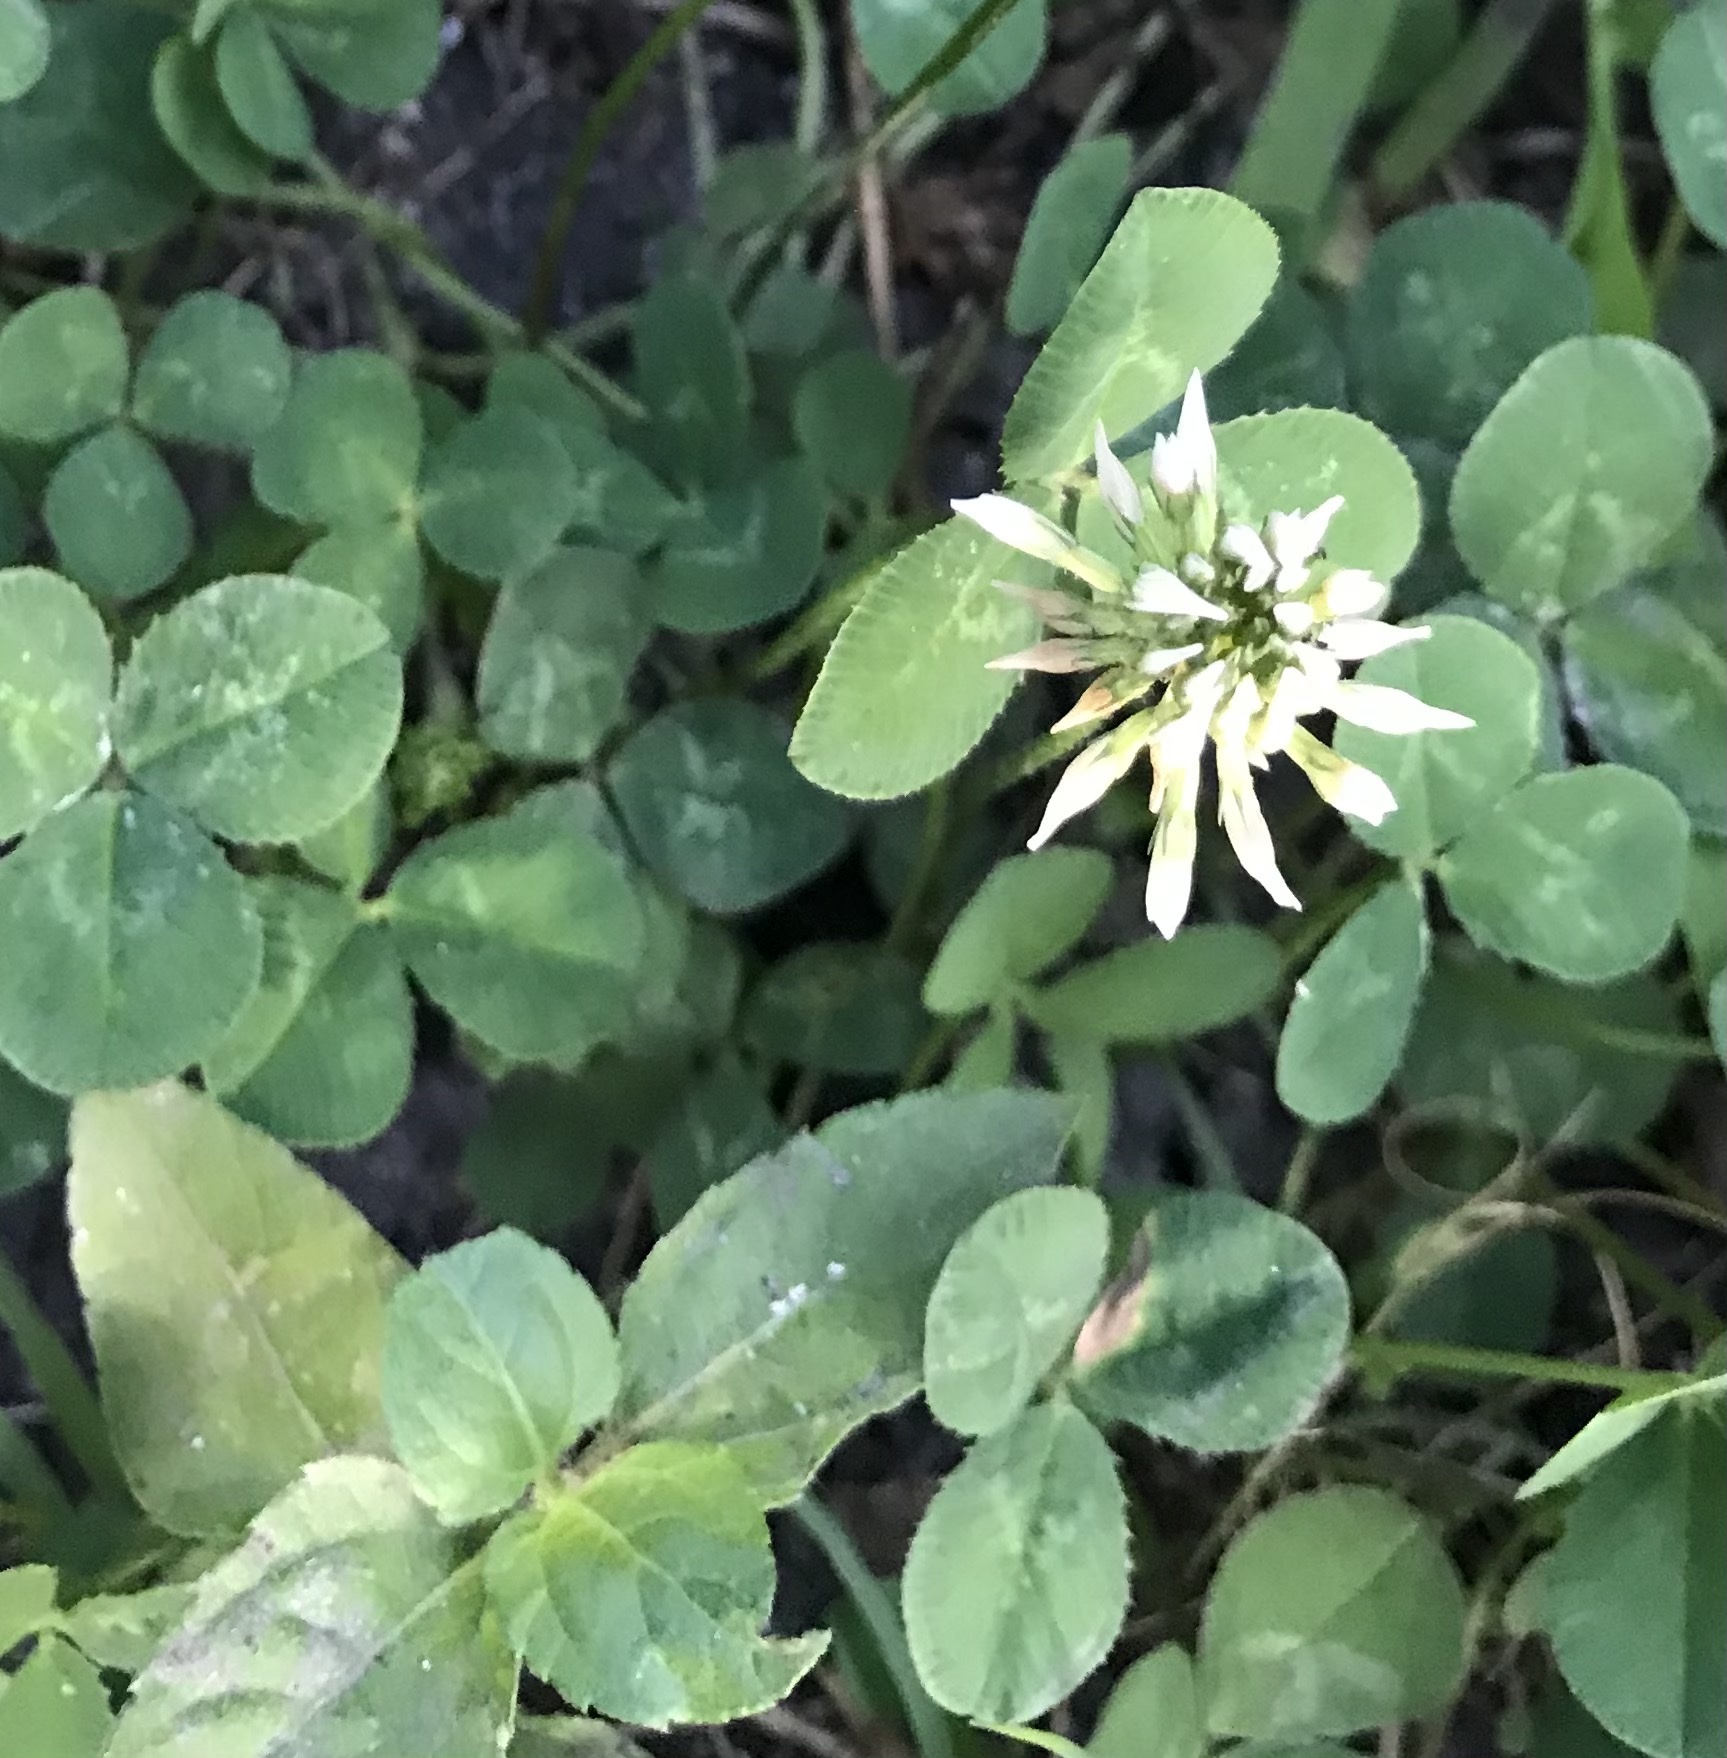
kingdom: Plantae
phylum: Tracheophyta
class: Magnoliopsida
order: Fabales
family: Fabaceae
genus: Trifolium
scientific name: Trifolium repens
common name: White clover
